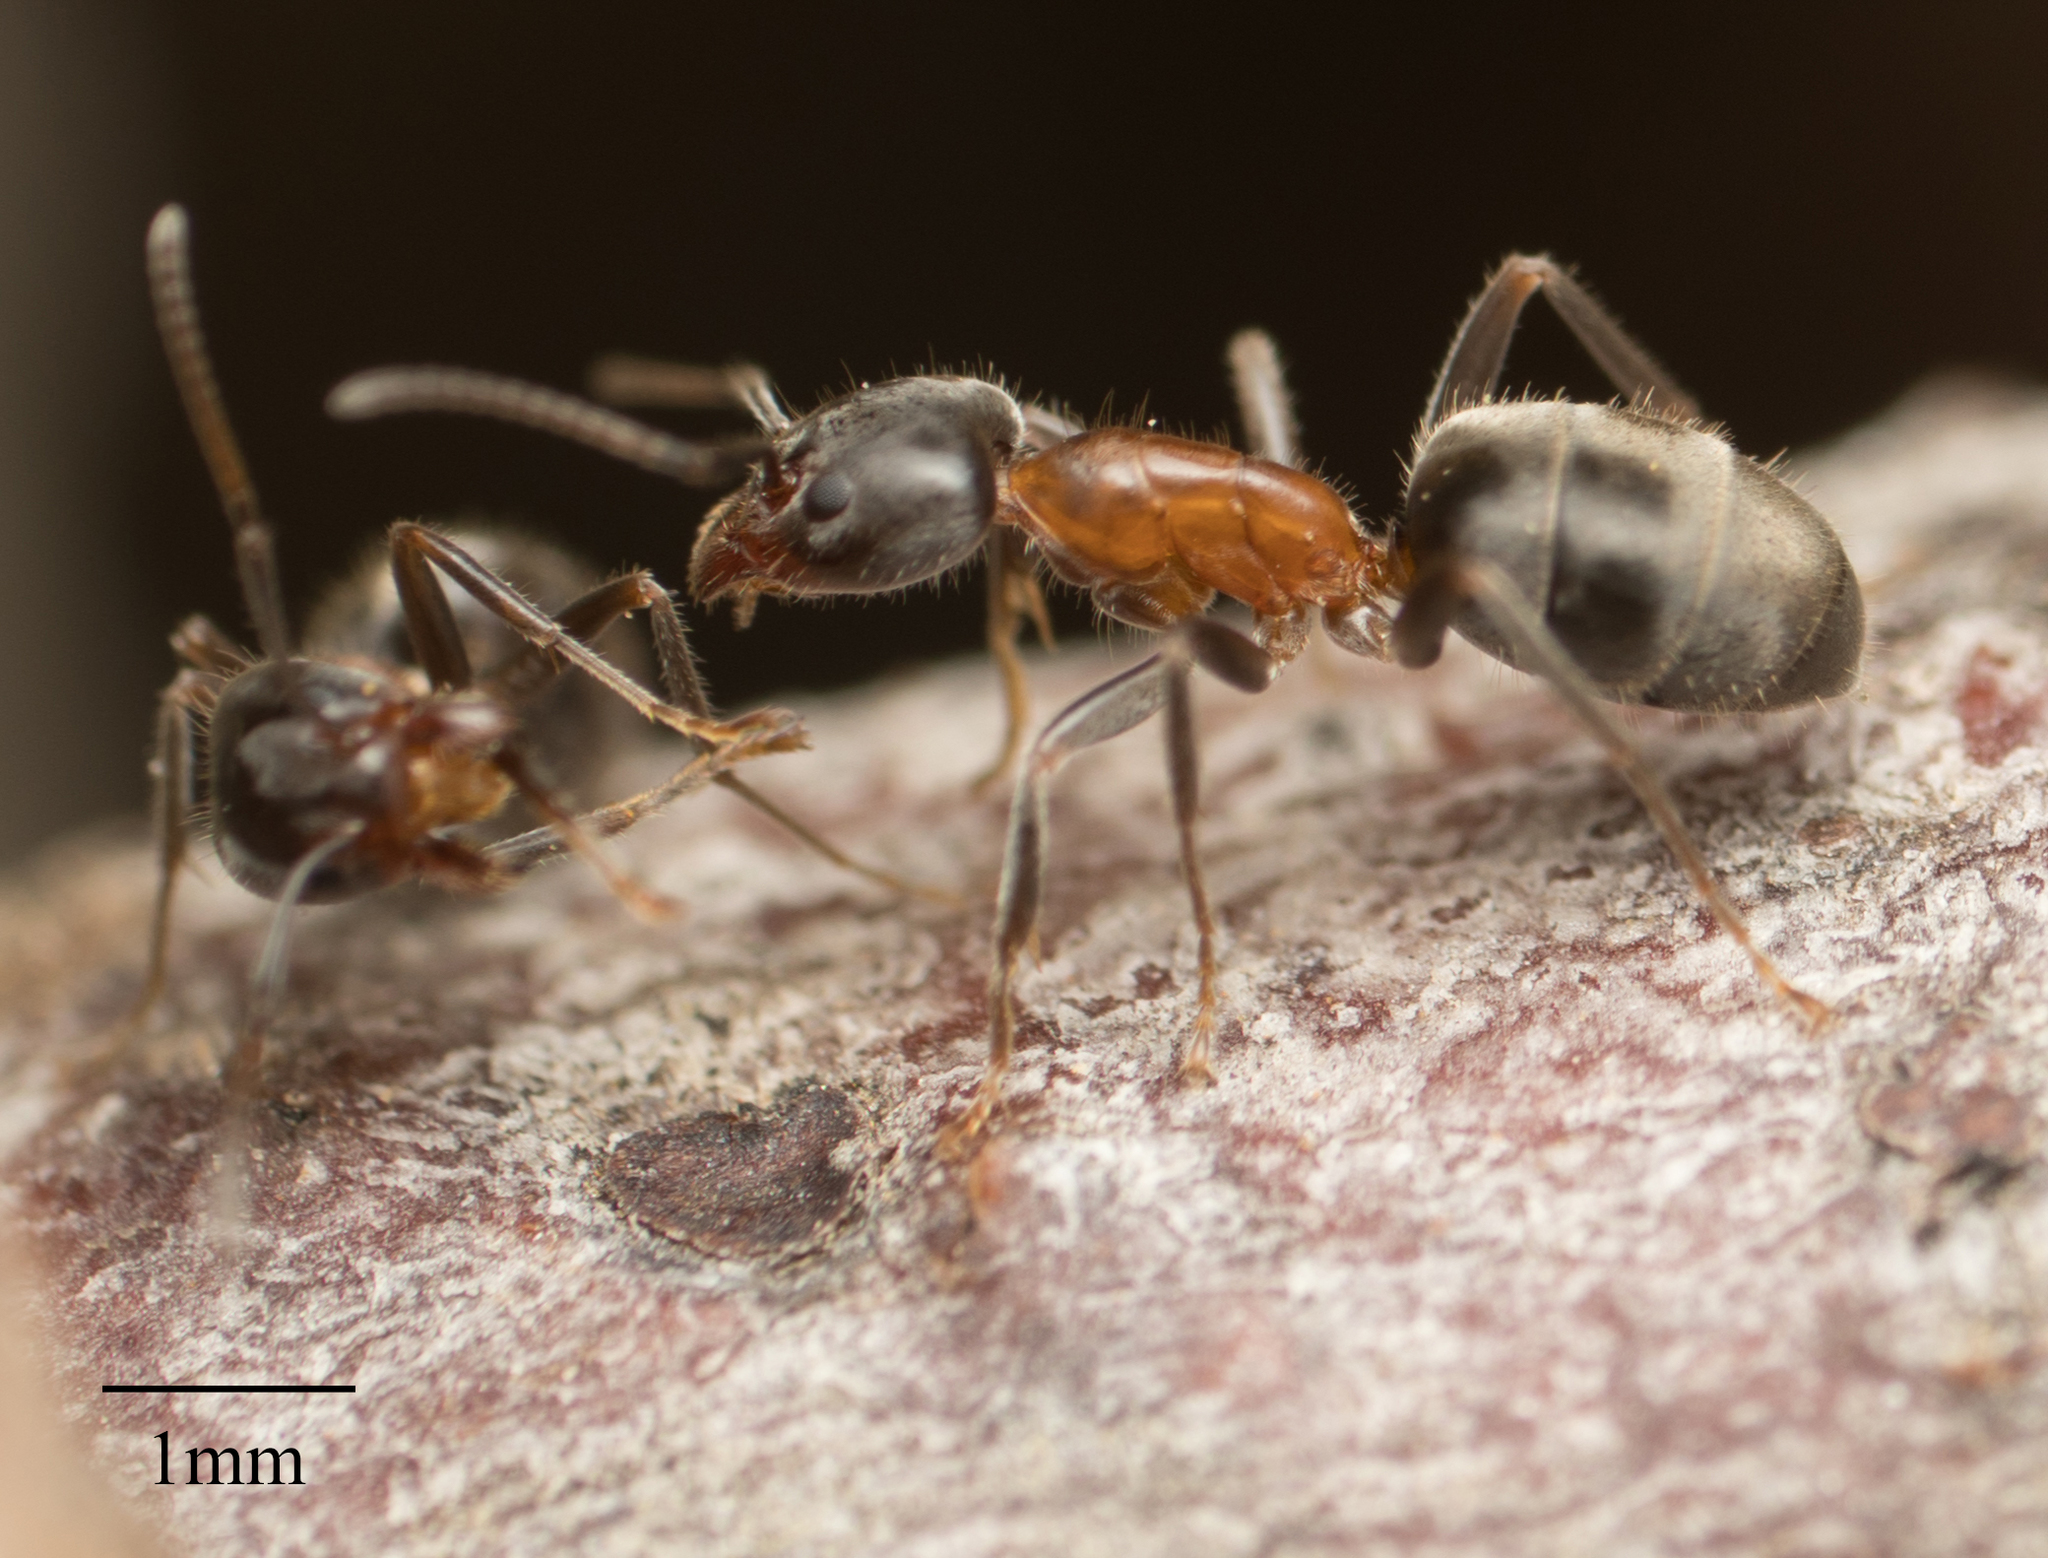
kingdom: Animalia
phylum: Arthropoda
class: Insecta
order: Hymenoptera
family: Formicidae
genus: Liometopum
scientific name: Liometopum occidentale
